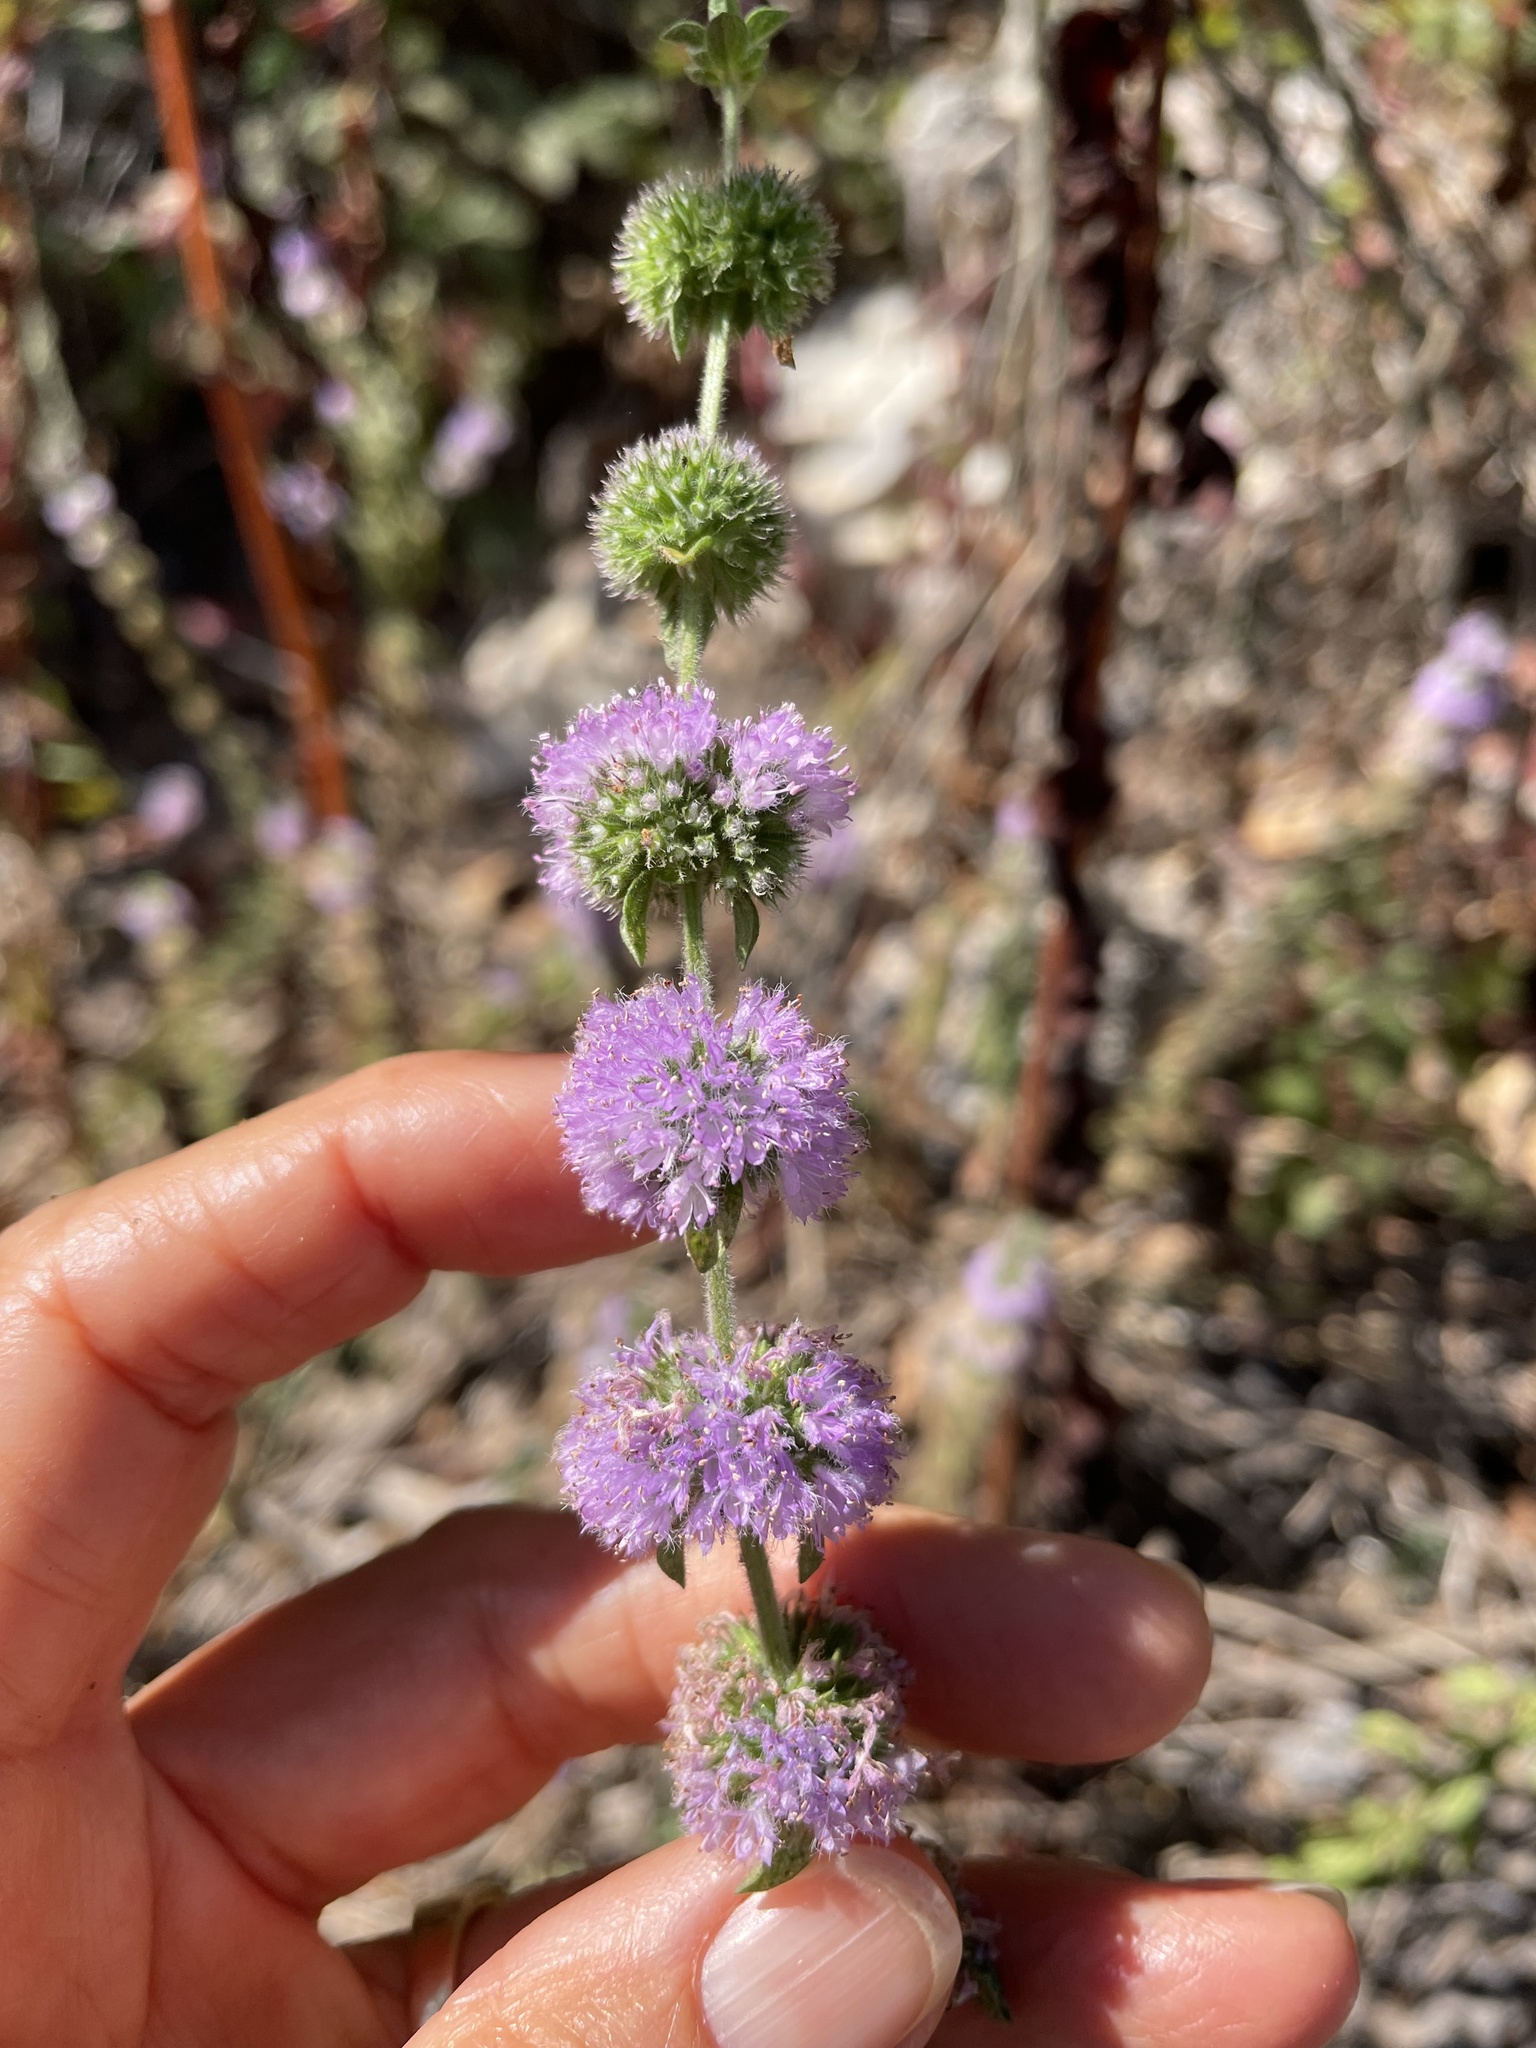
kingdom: Plantae
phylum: Tracheophyta
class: Magnoliopsida
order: Lamiales
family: Lamiaceae
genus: Mentha
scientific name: Mentha pulegium
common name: Pennyroyal
